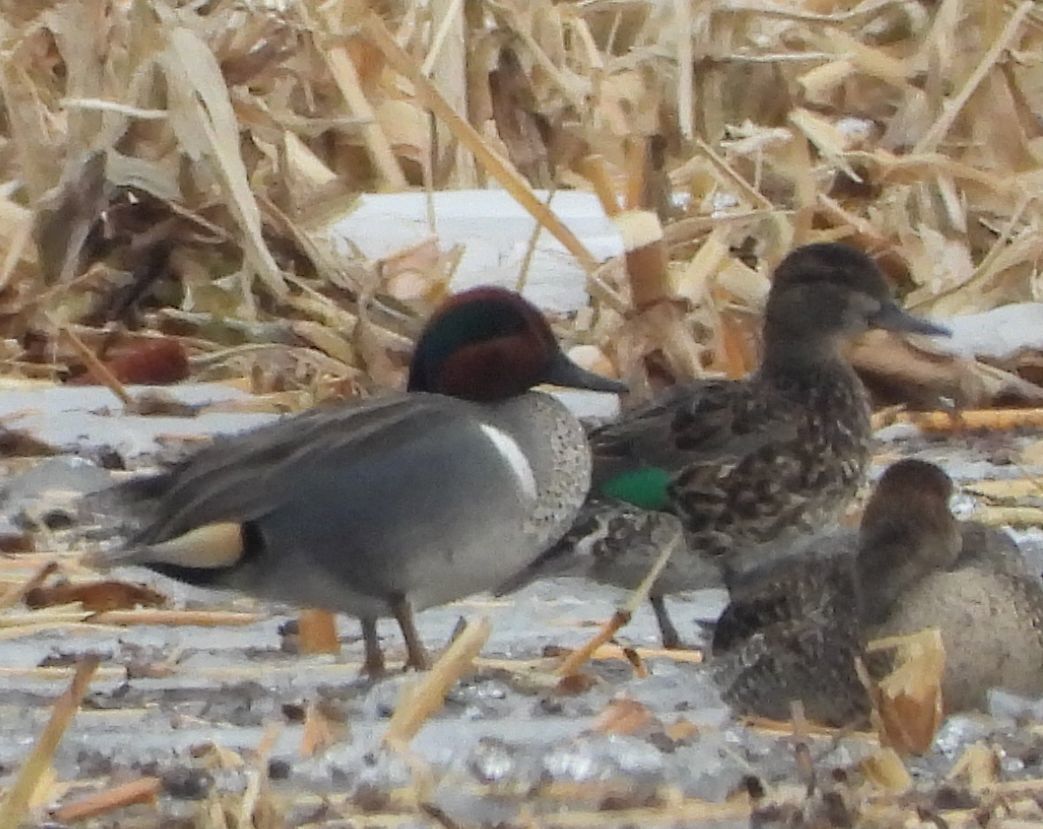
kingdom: Animalia
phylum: Chordata
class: Aves
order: Anseriformes
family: Anatidae
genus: Anas
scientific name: Anas crecca
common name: Eurasian teal
